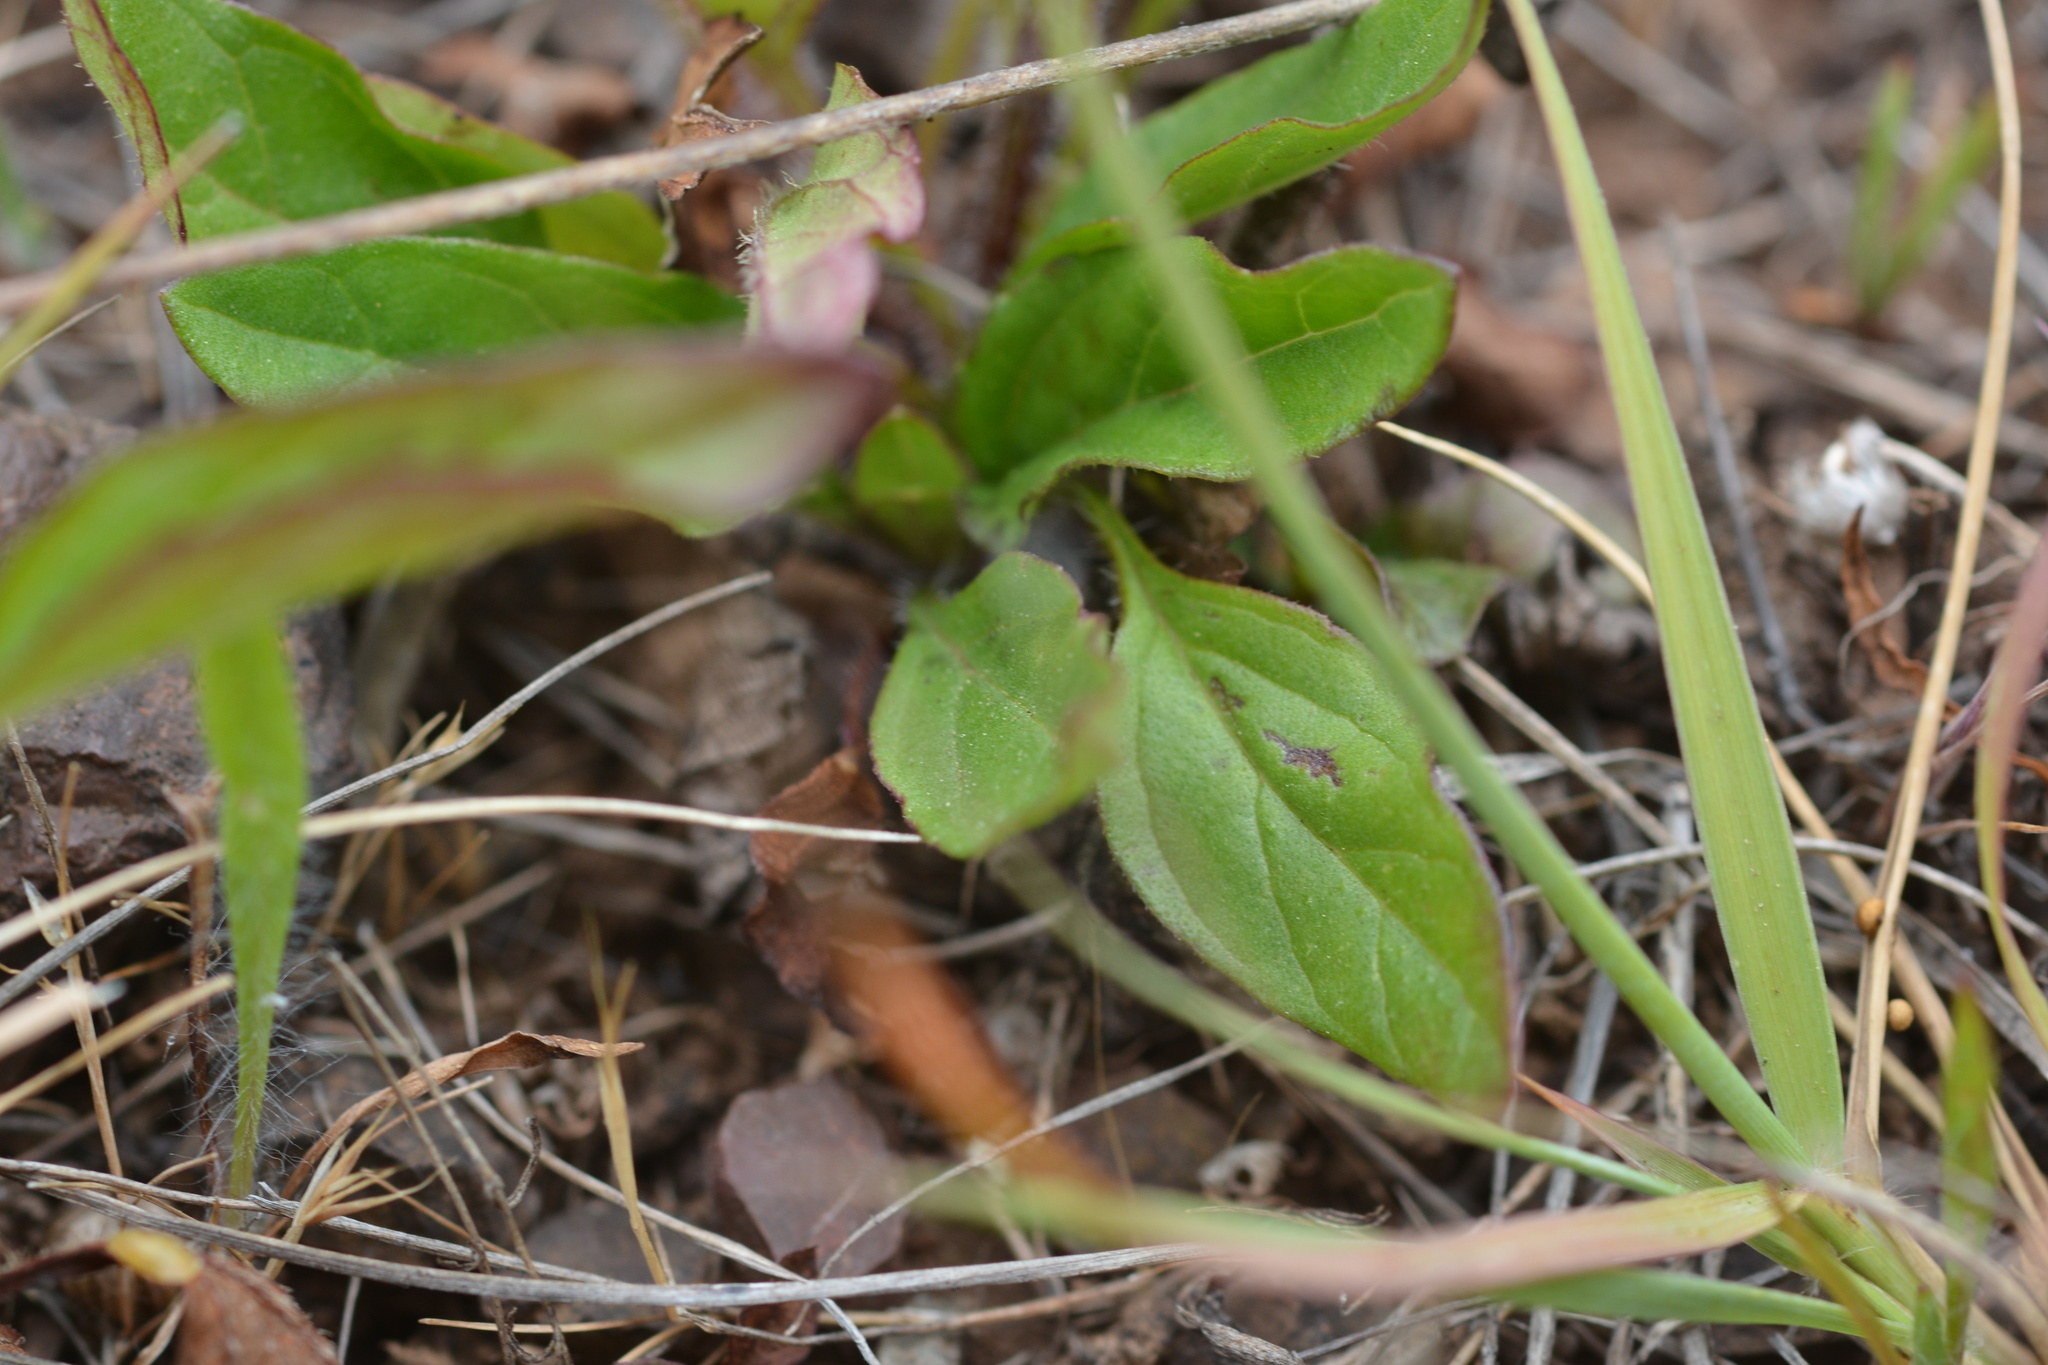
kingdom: Plantae
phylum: Tracheophyta
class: Magnoliopsida
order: Lamiales
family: Lamiaceae
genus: Prunella
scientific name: Prunella vulgaris
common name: Heal-all
